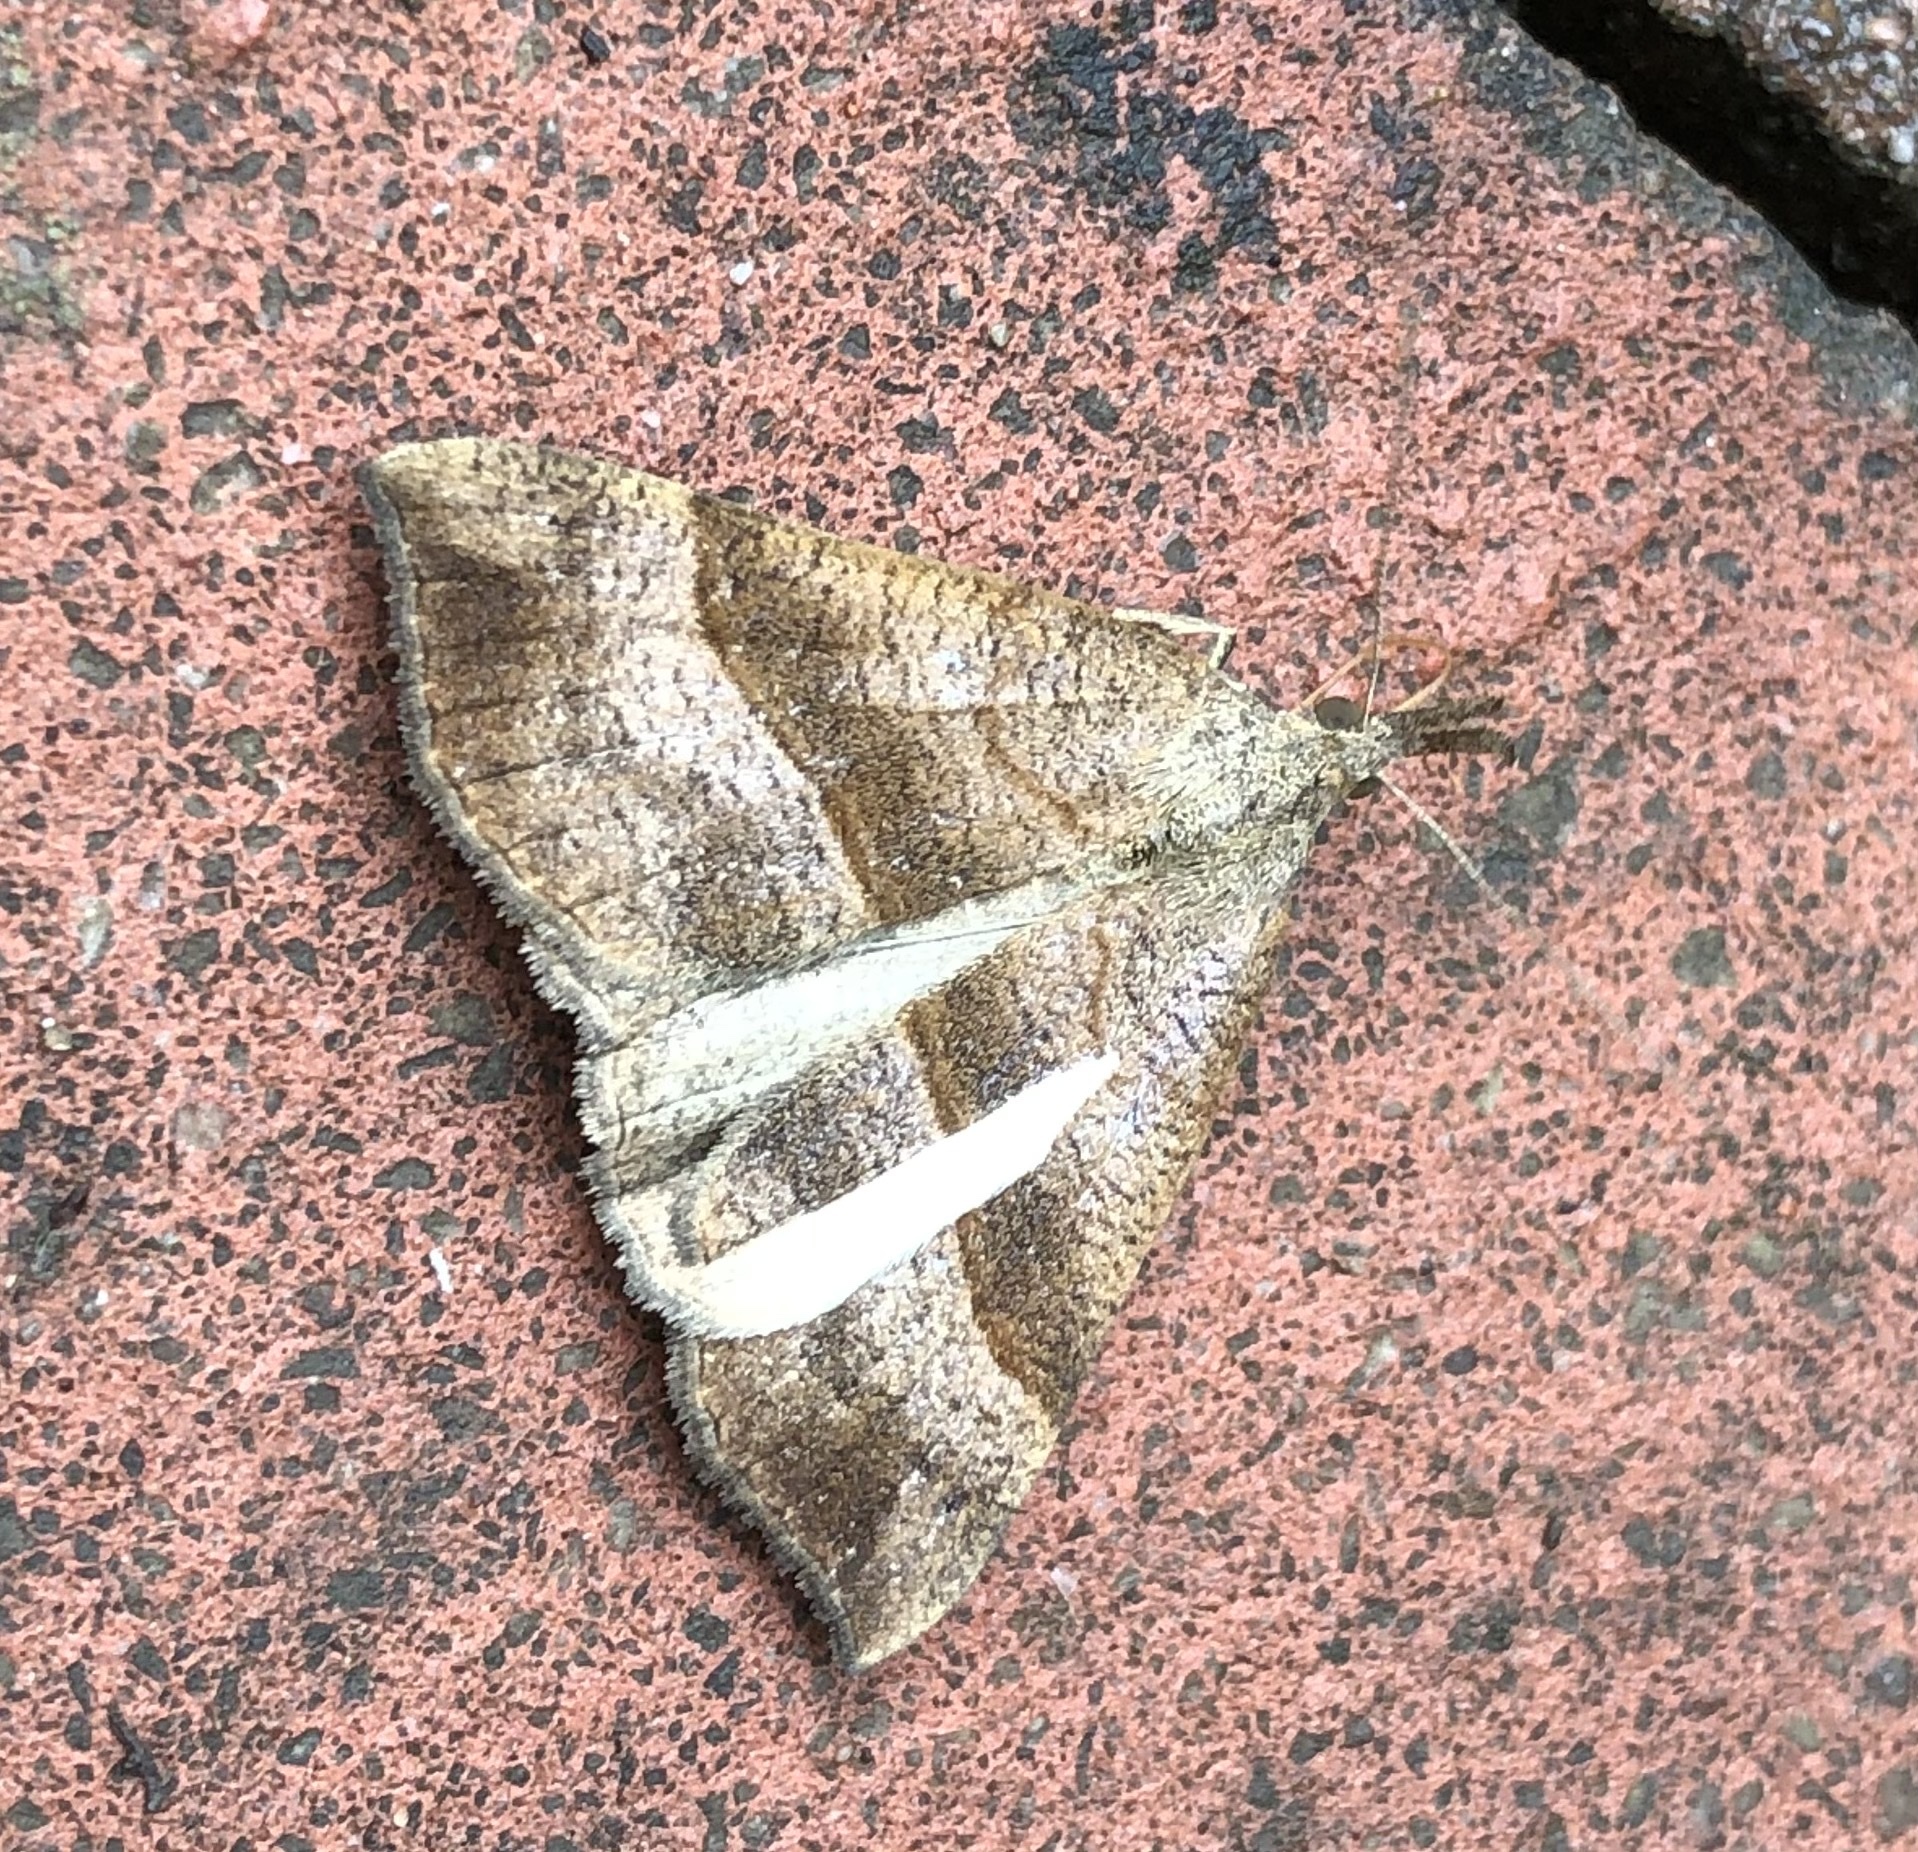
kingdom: Animalia
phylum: Arthropoda
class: Insecta
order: Lepidoptera
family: Erebidae
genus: Hypena
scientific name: Hypena proboscidalis
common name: Snout
